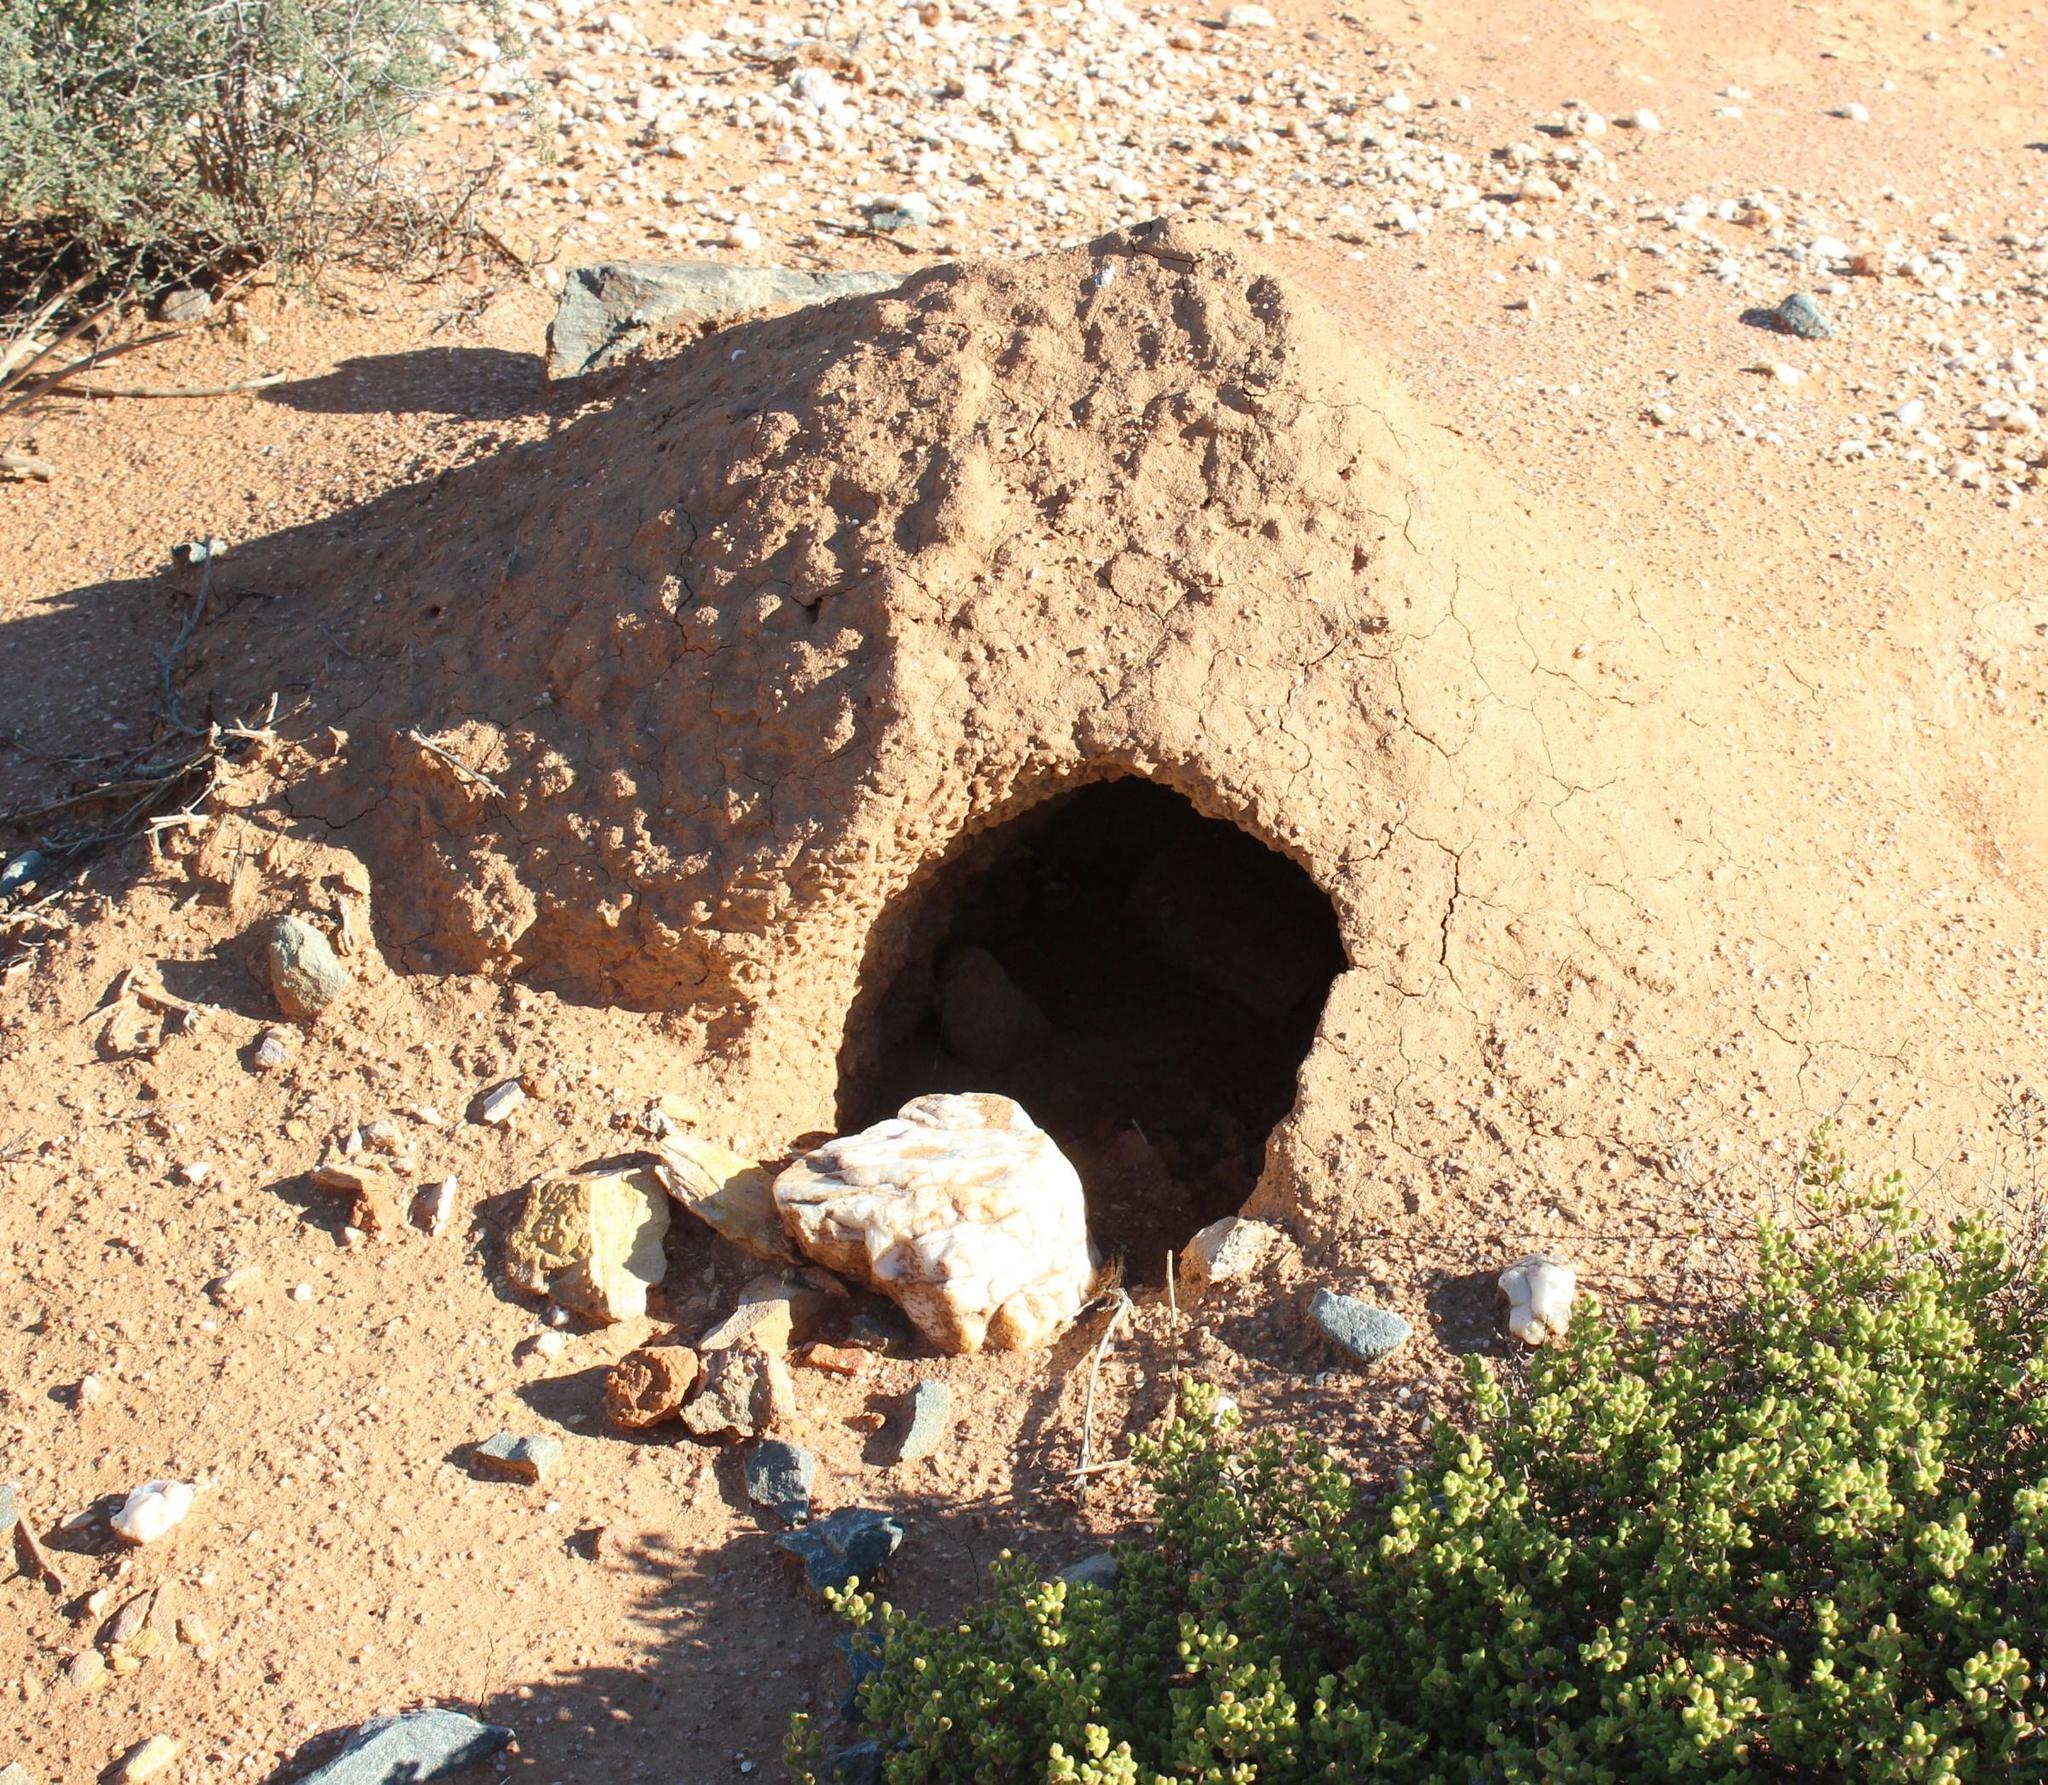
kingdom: Animalia
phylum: Chordata
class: Mammalia
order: Tubulidentata
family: Orycteropodidae
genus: Orycteropus
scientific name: Orycteropus afer
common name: Aardvark
